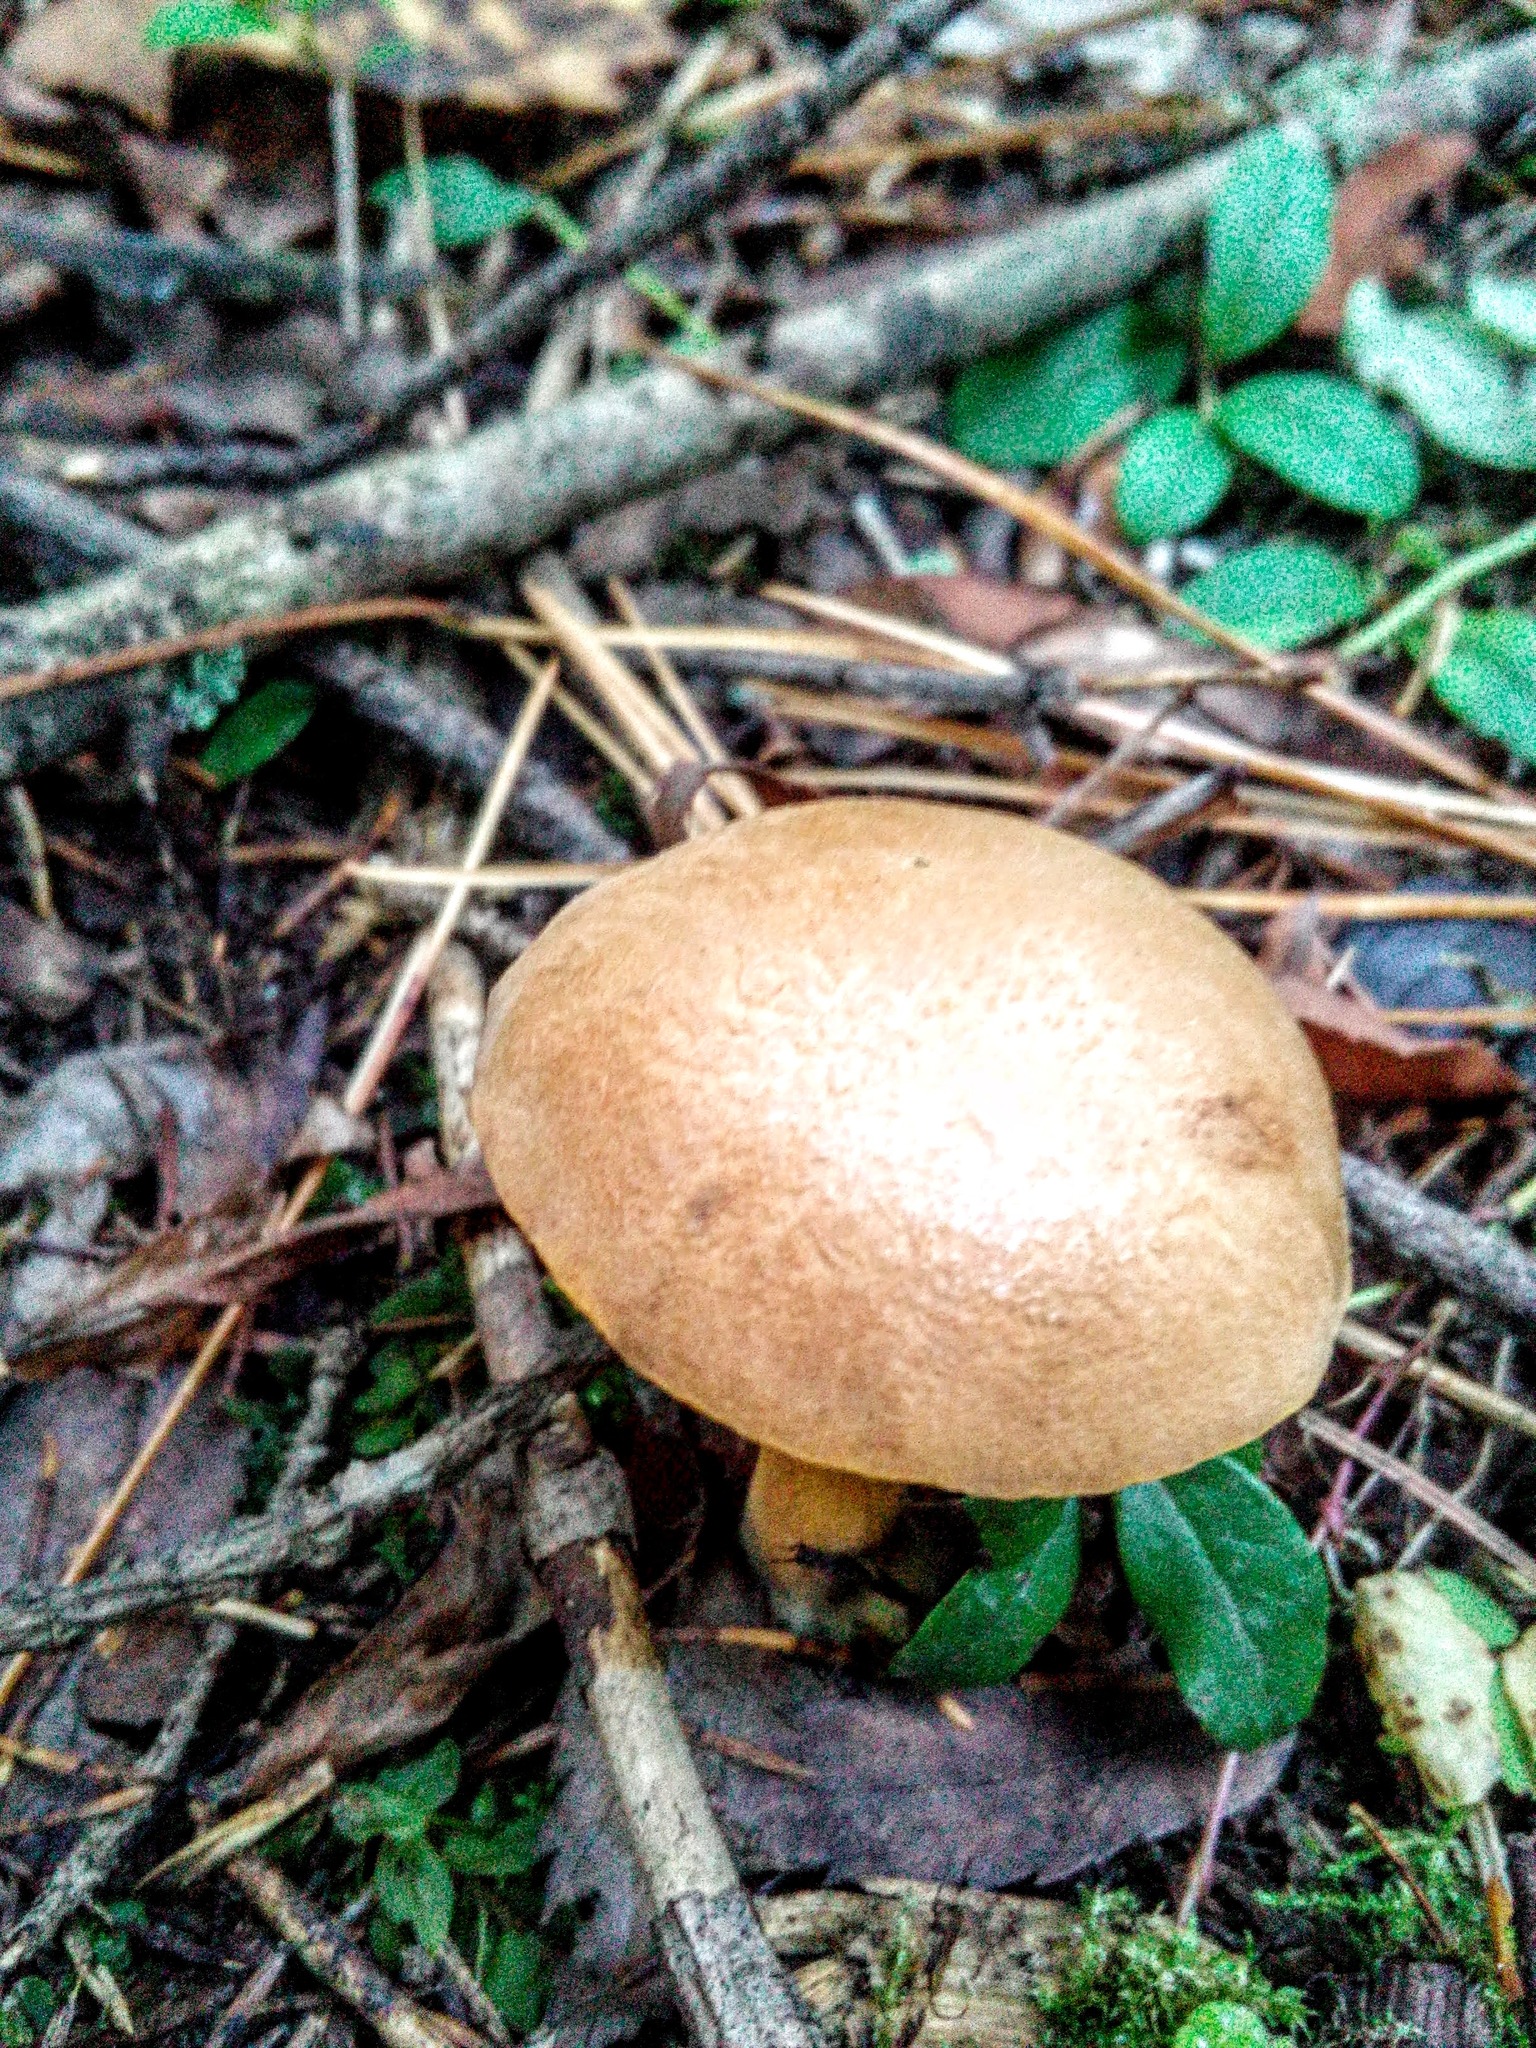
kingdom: Fungi
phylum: Basidiomycota
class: Agaricomycetes
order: Boletales
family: Boletaceae
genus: Chalciporus
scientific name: Chalciporus piperatus
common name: Peppery bolete
